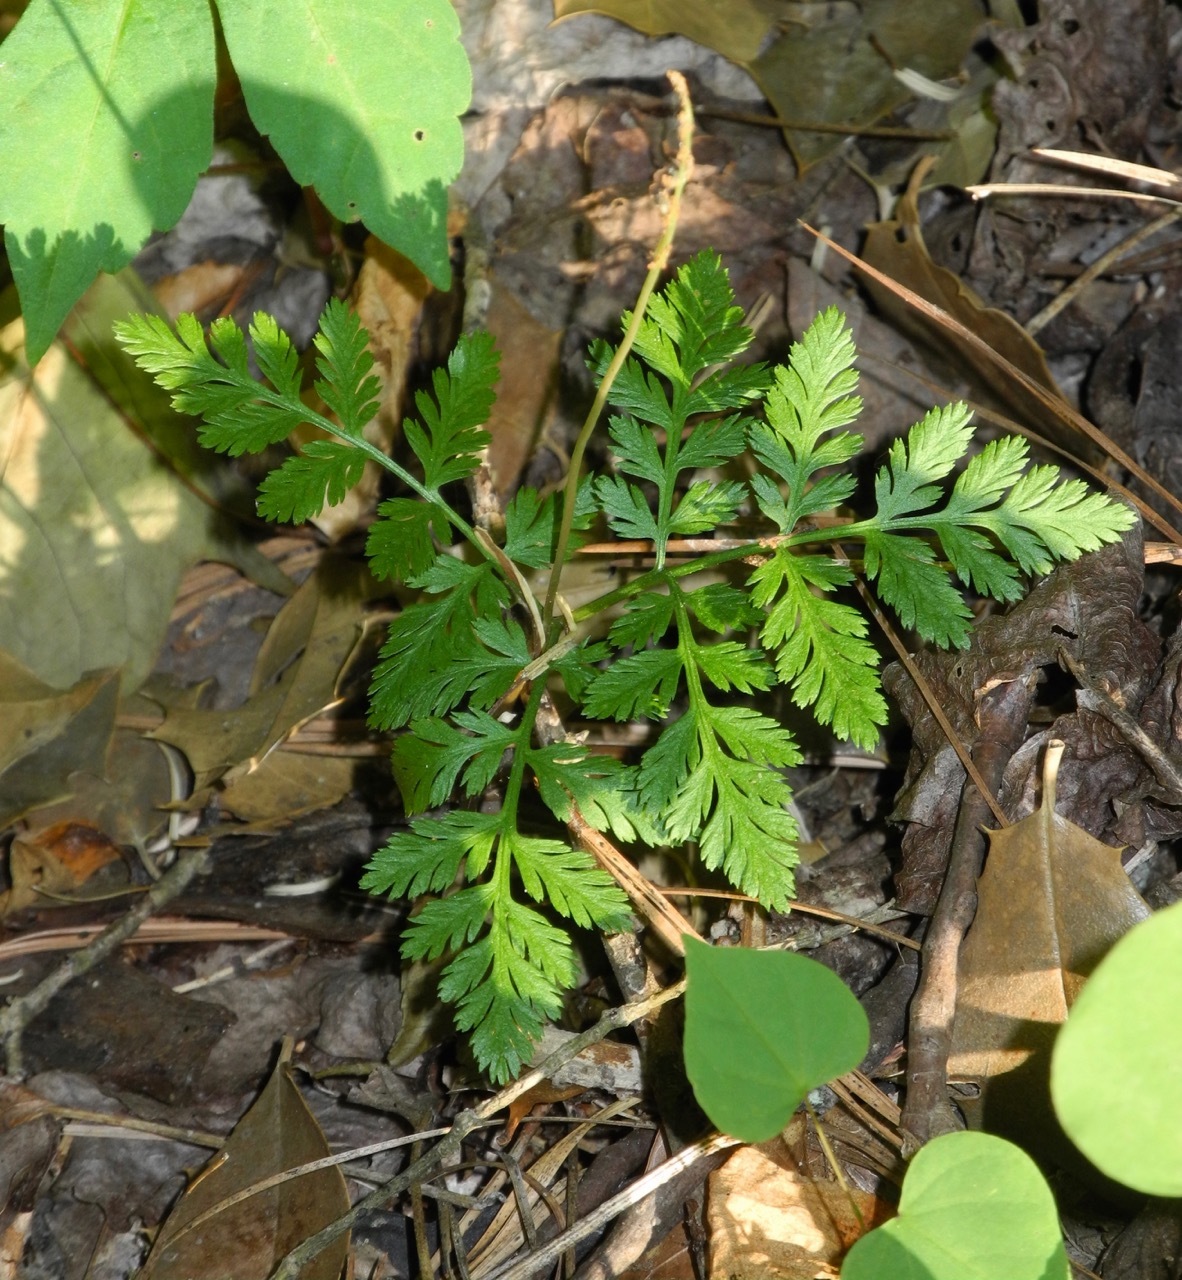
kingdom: Plantae
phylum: Tracheophyta
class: Polypodiopsida
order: Ophioglossales
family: Ophioglossaceae
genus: Botrypus
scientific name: Botrypus virginianus
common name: Common grapefern
